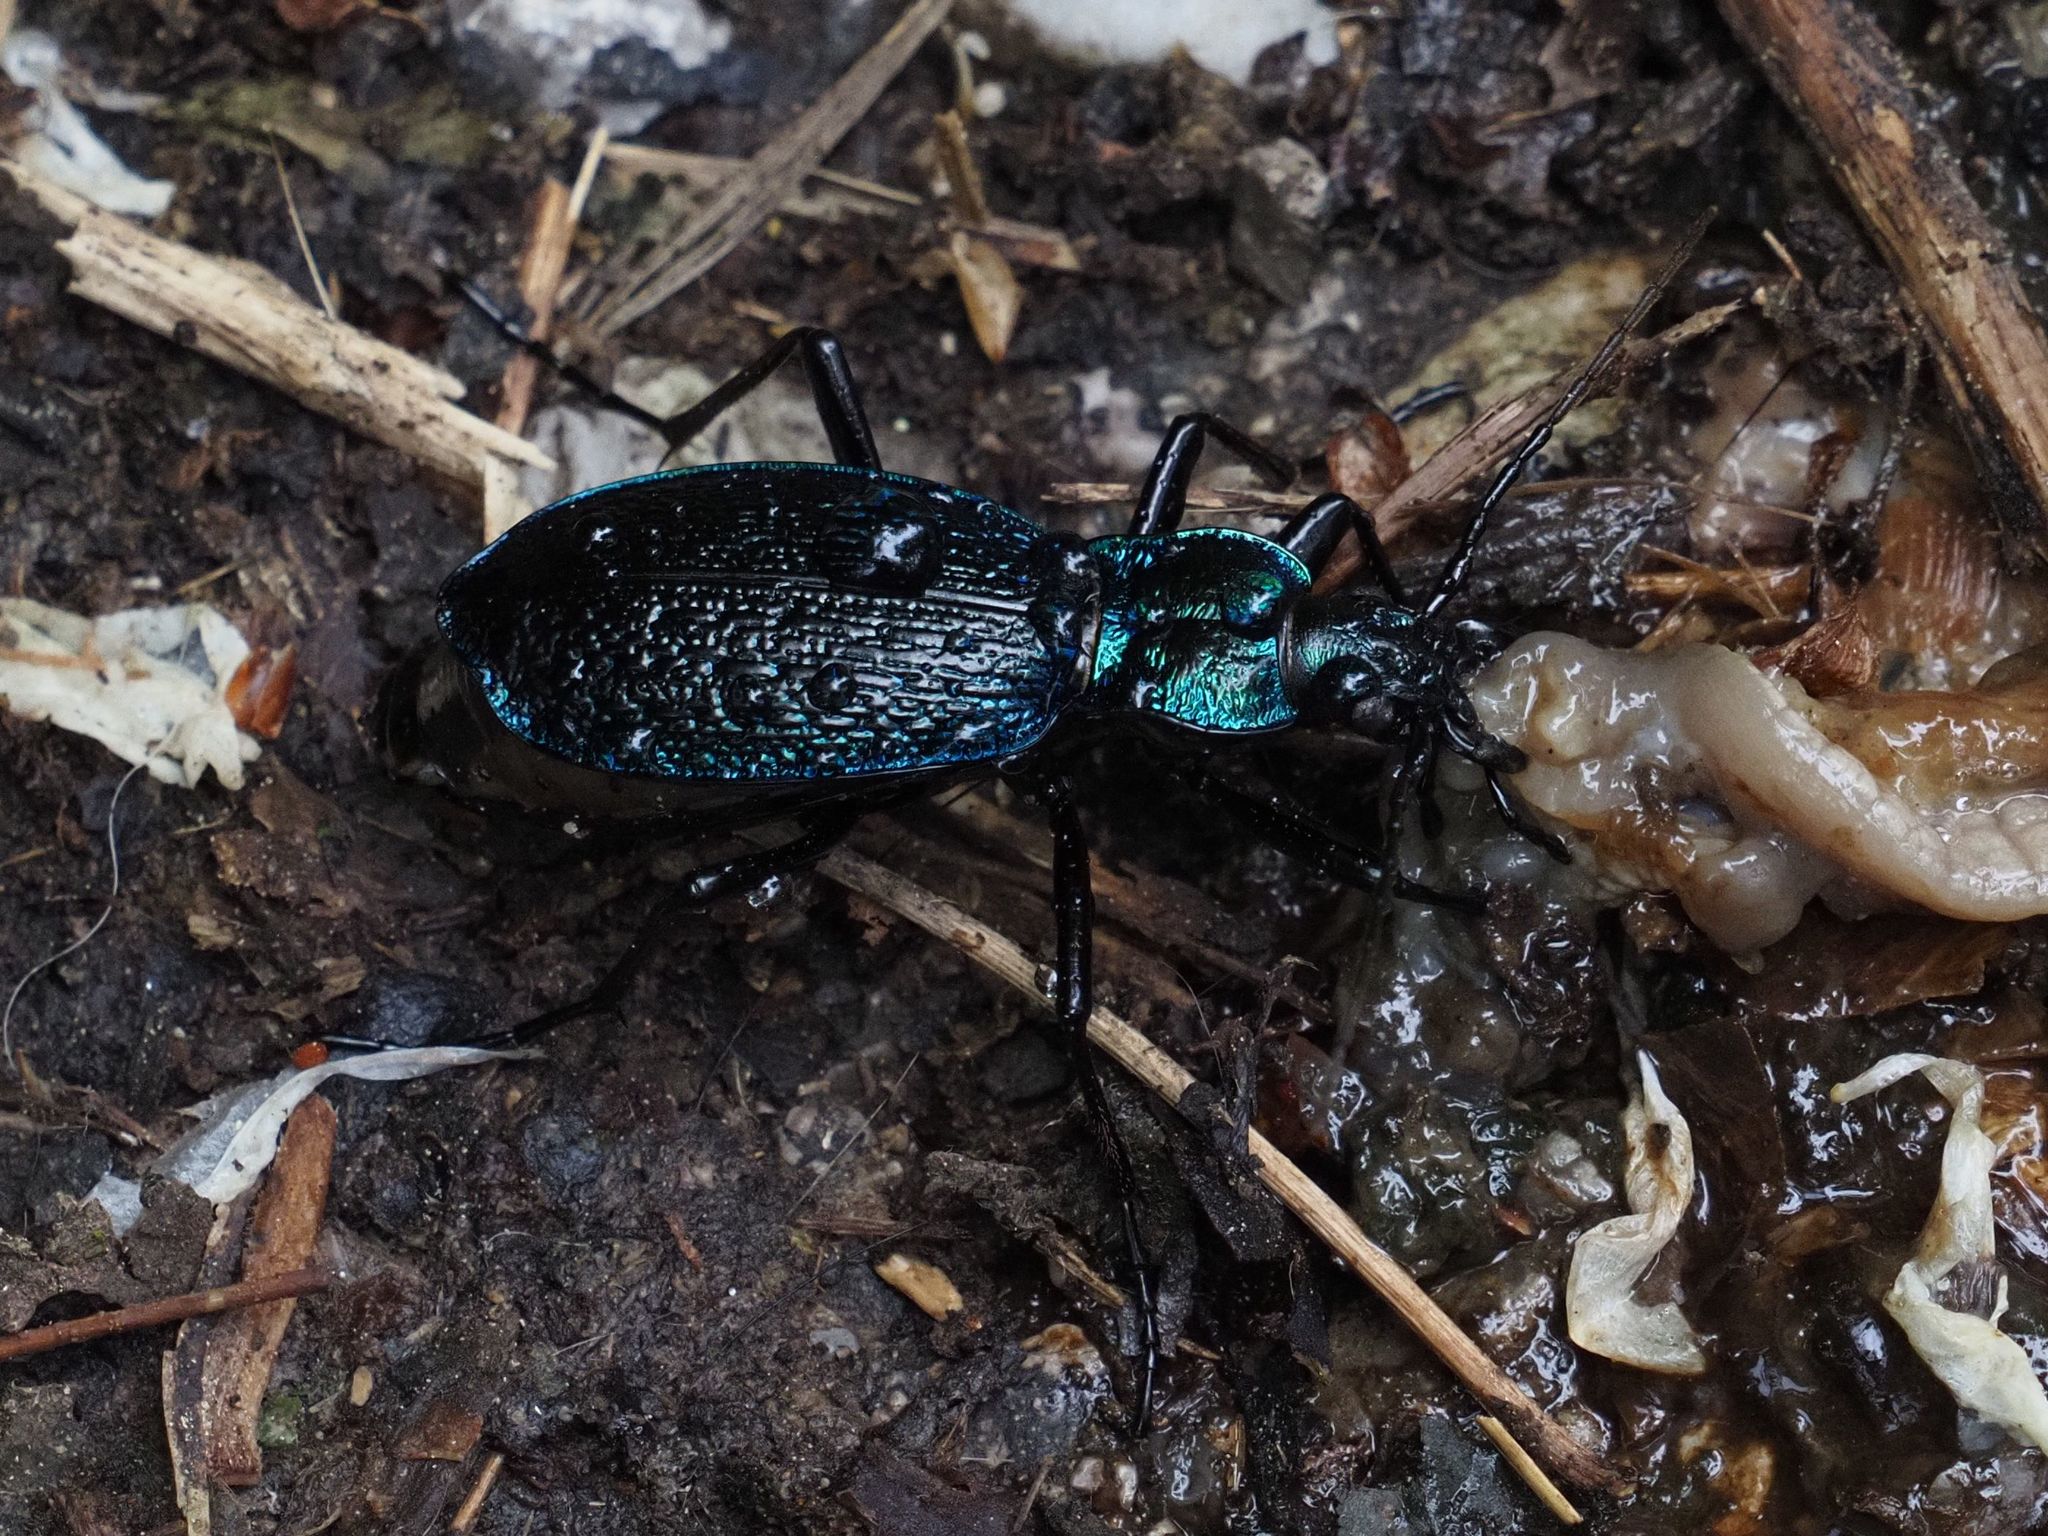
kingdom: Animalia
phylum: Arthropoda
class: Insecta
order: Coleoptera
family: Carabidae
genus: Carabus
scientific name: Carabus intricatus
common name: Blue ground beetle
